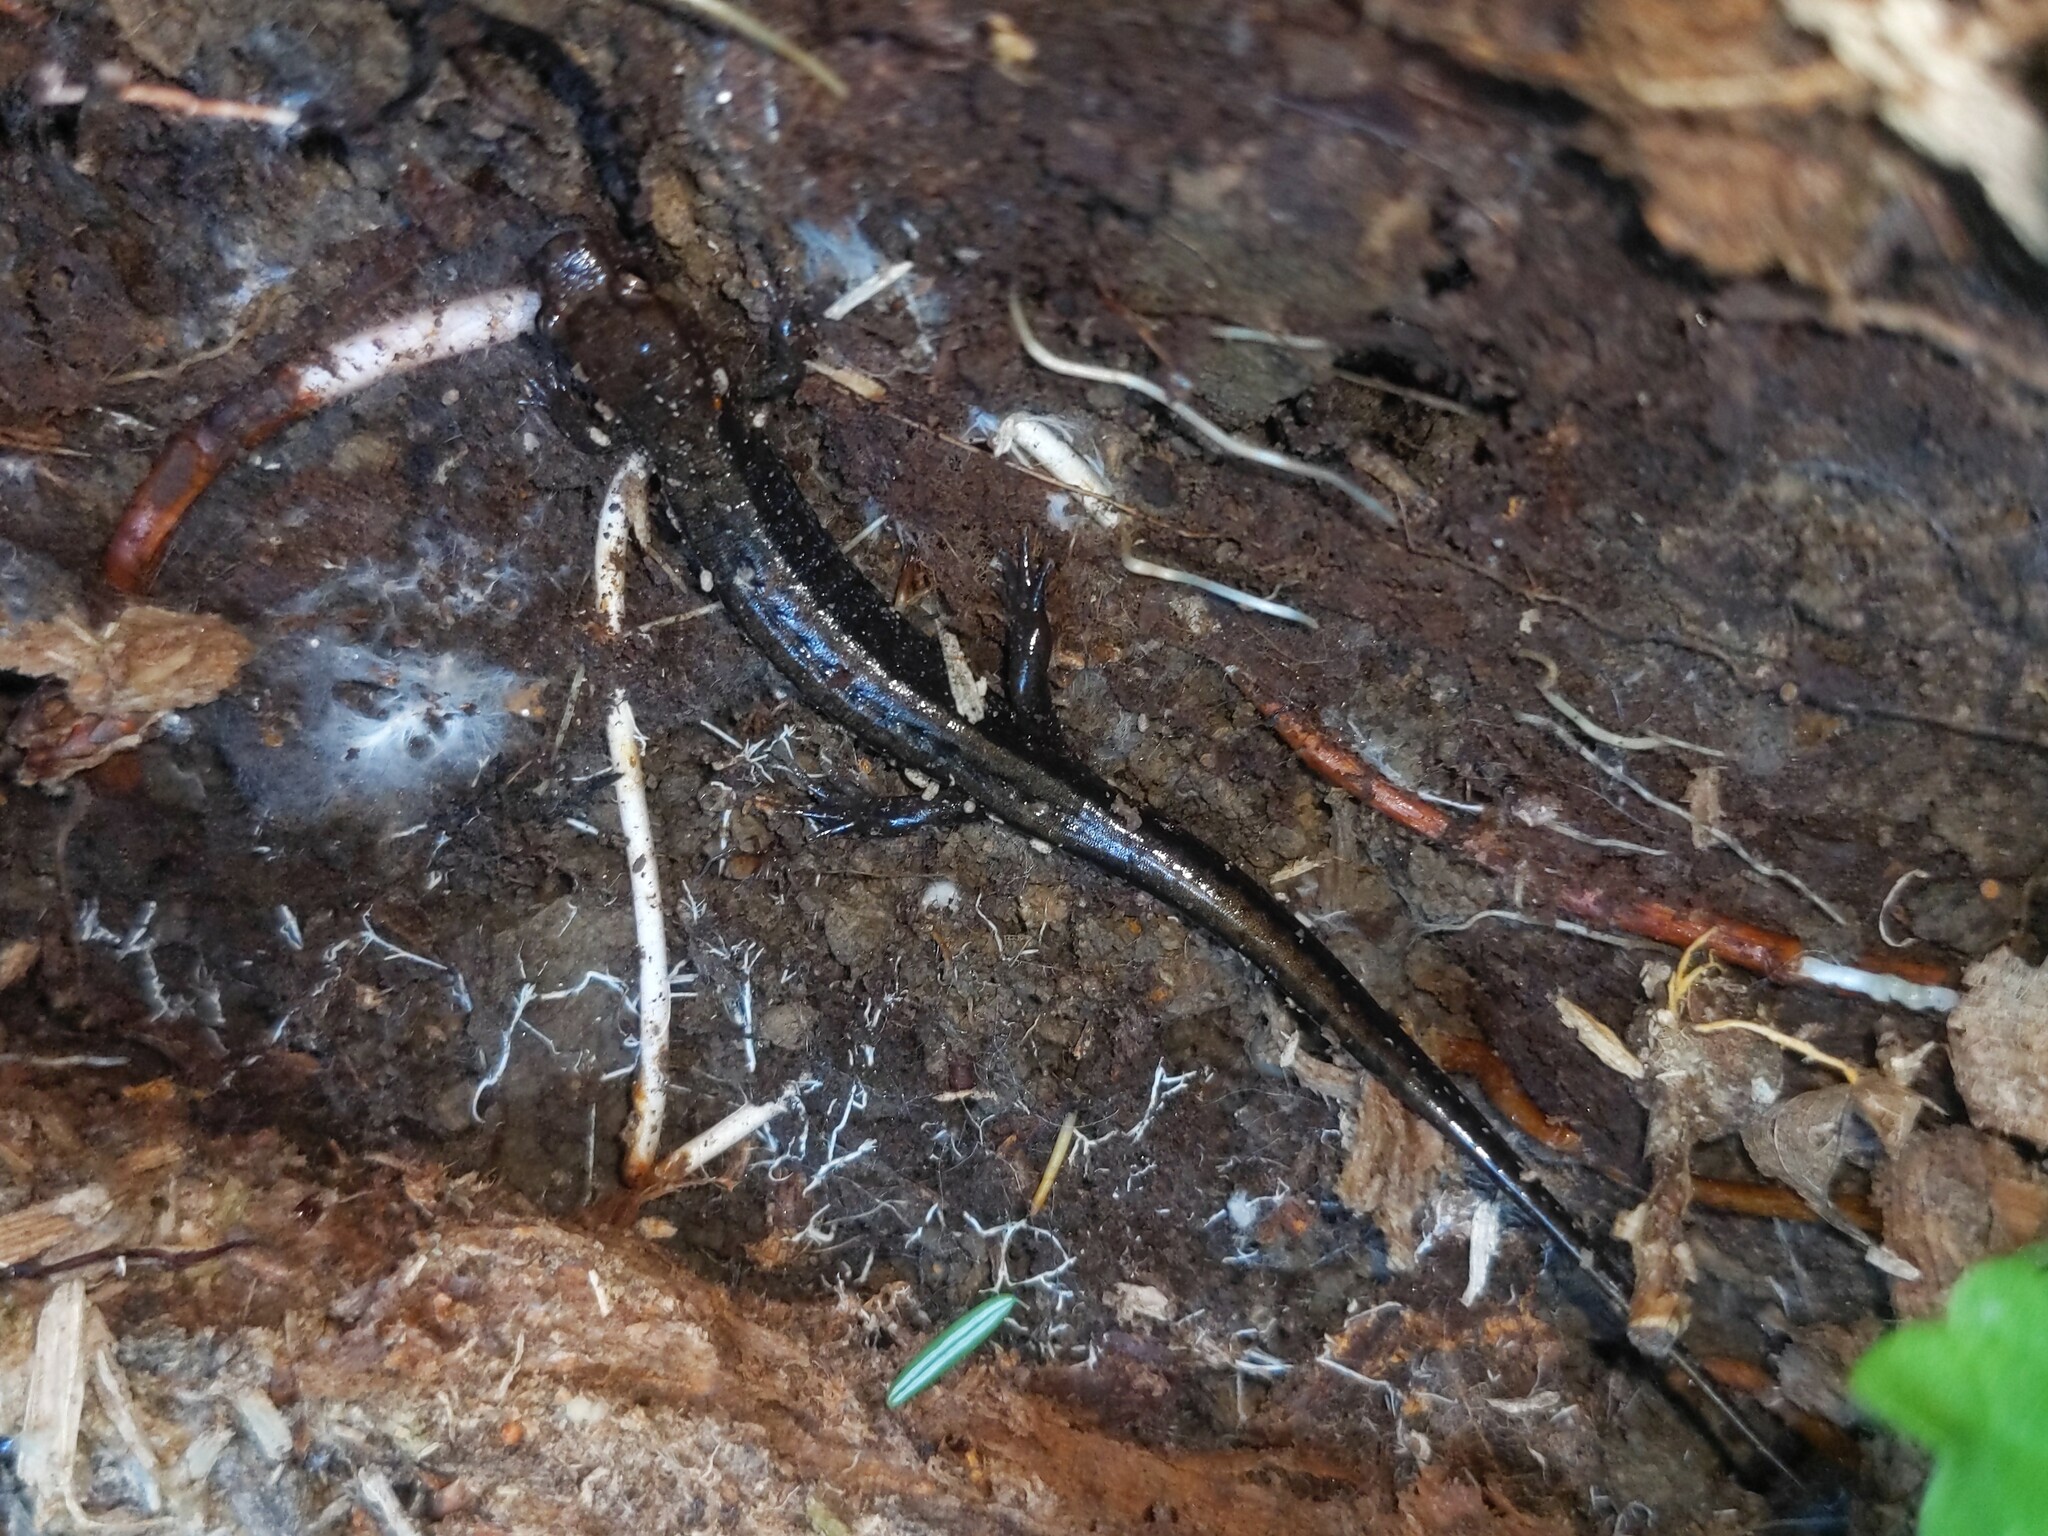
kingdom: Animalia
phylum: Chordata
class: Amphibia
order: Caudata
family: Plethodontidae
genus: Desmognathus
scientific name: Desmognathus ochrophaeus
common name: Allegheny mountain dusky salamander
